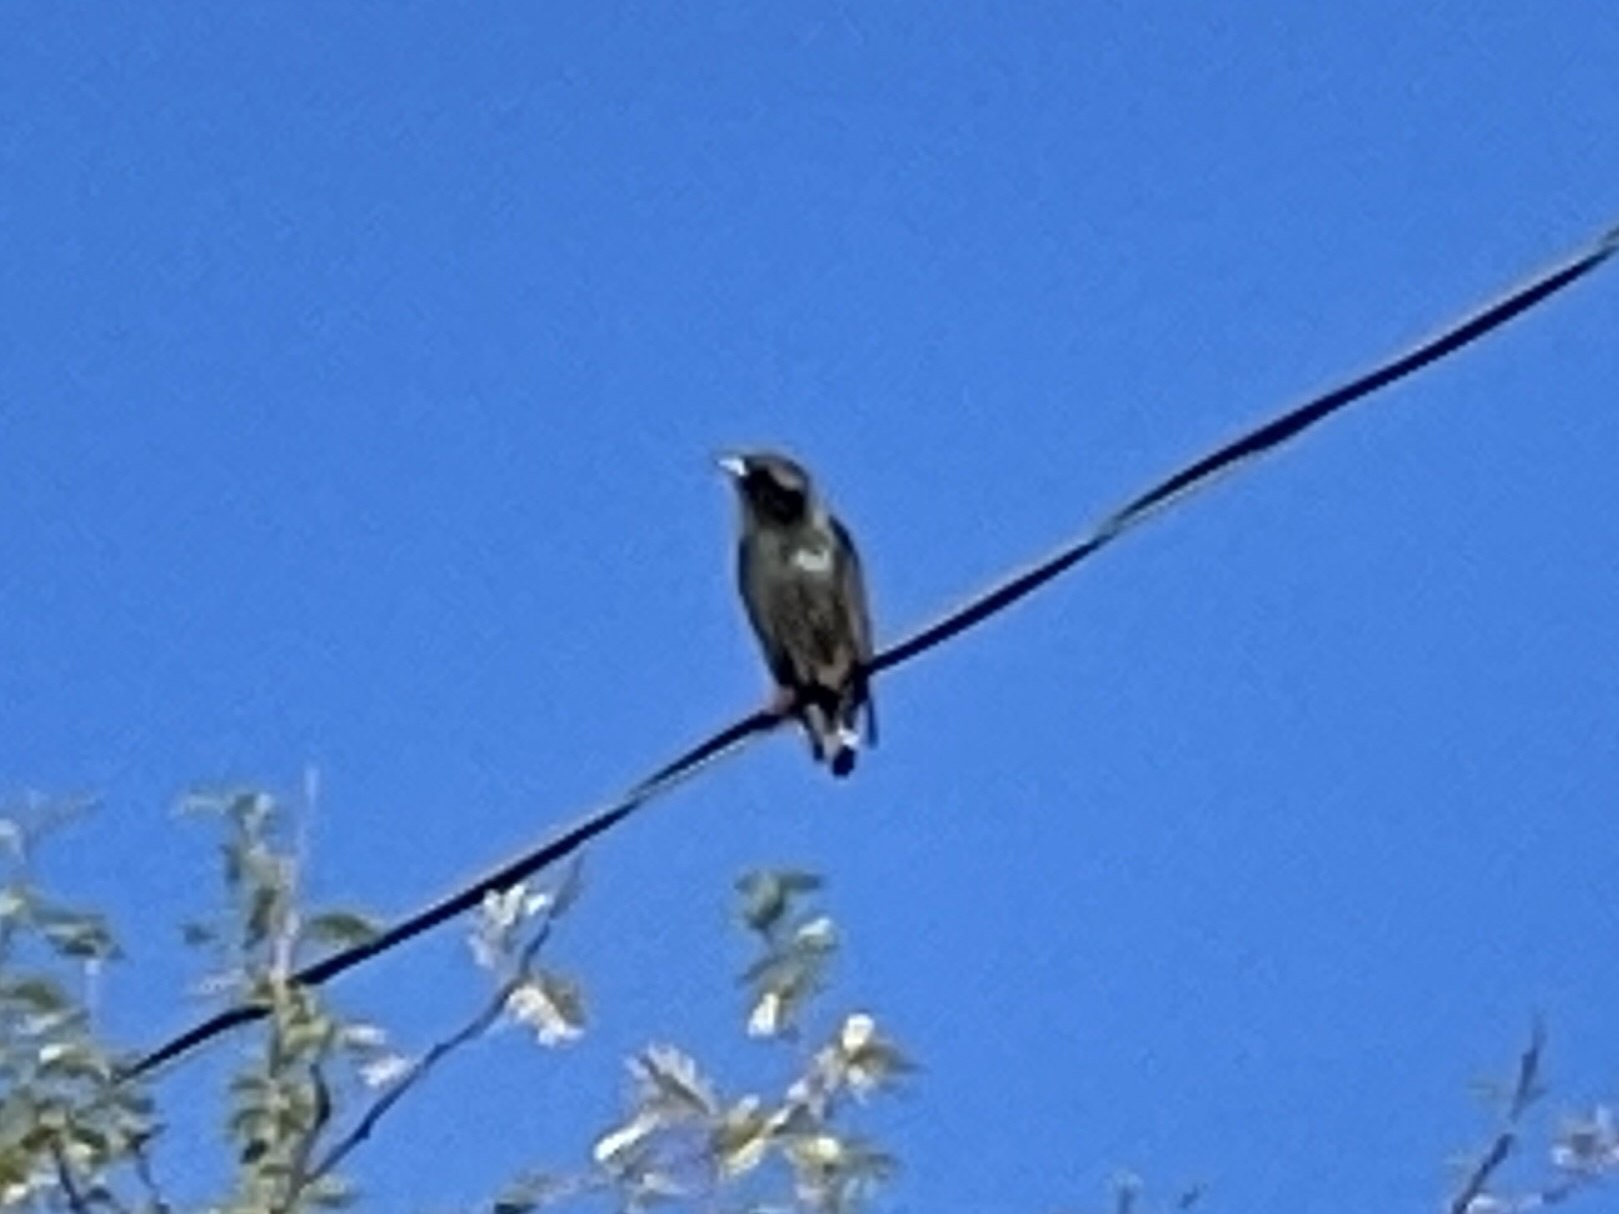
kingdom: Animalia
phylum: Chordata
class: Aves
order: Passeriformes
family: Sturnidae
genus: Sturnus
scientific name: Sturnus vulgaris
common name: Common starling
